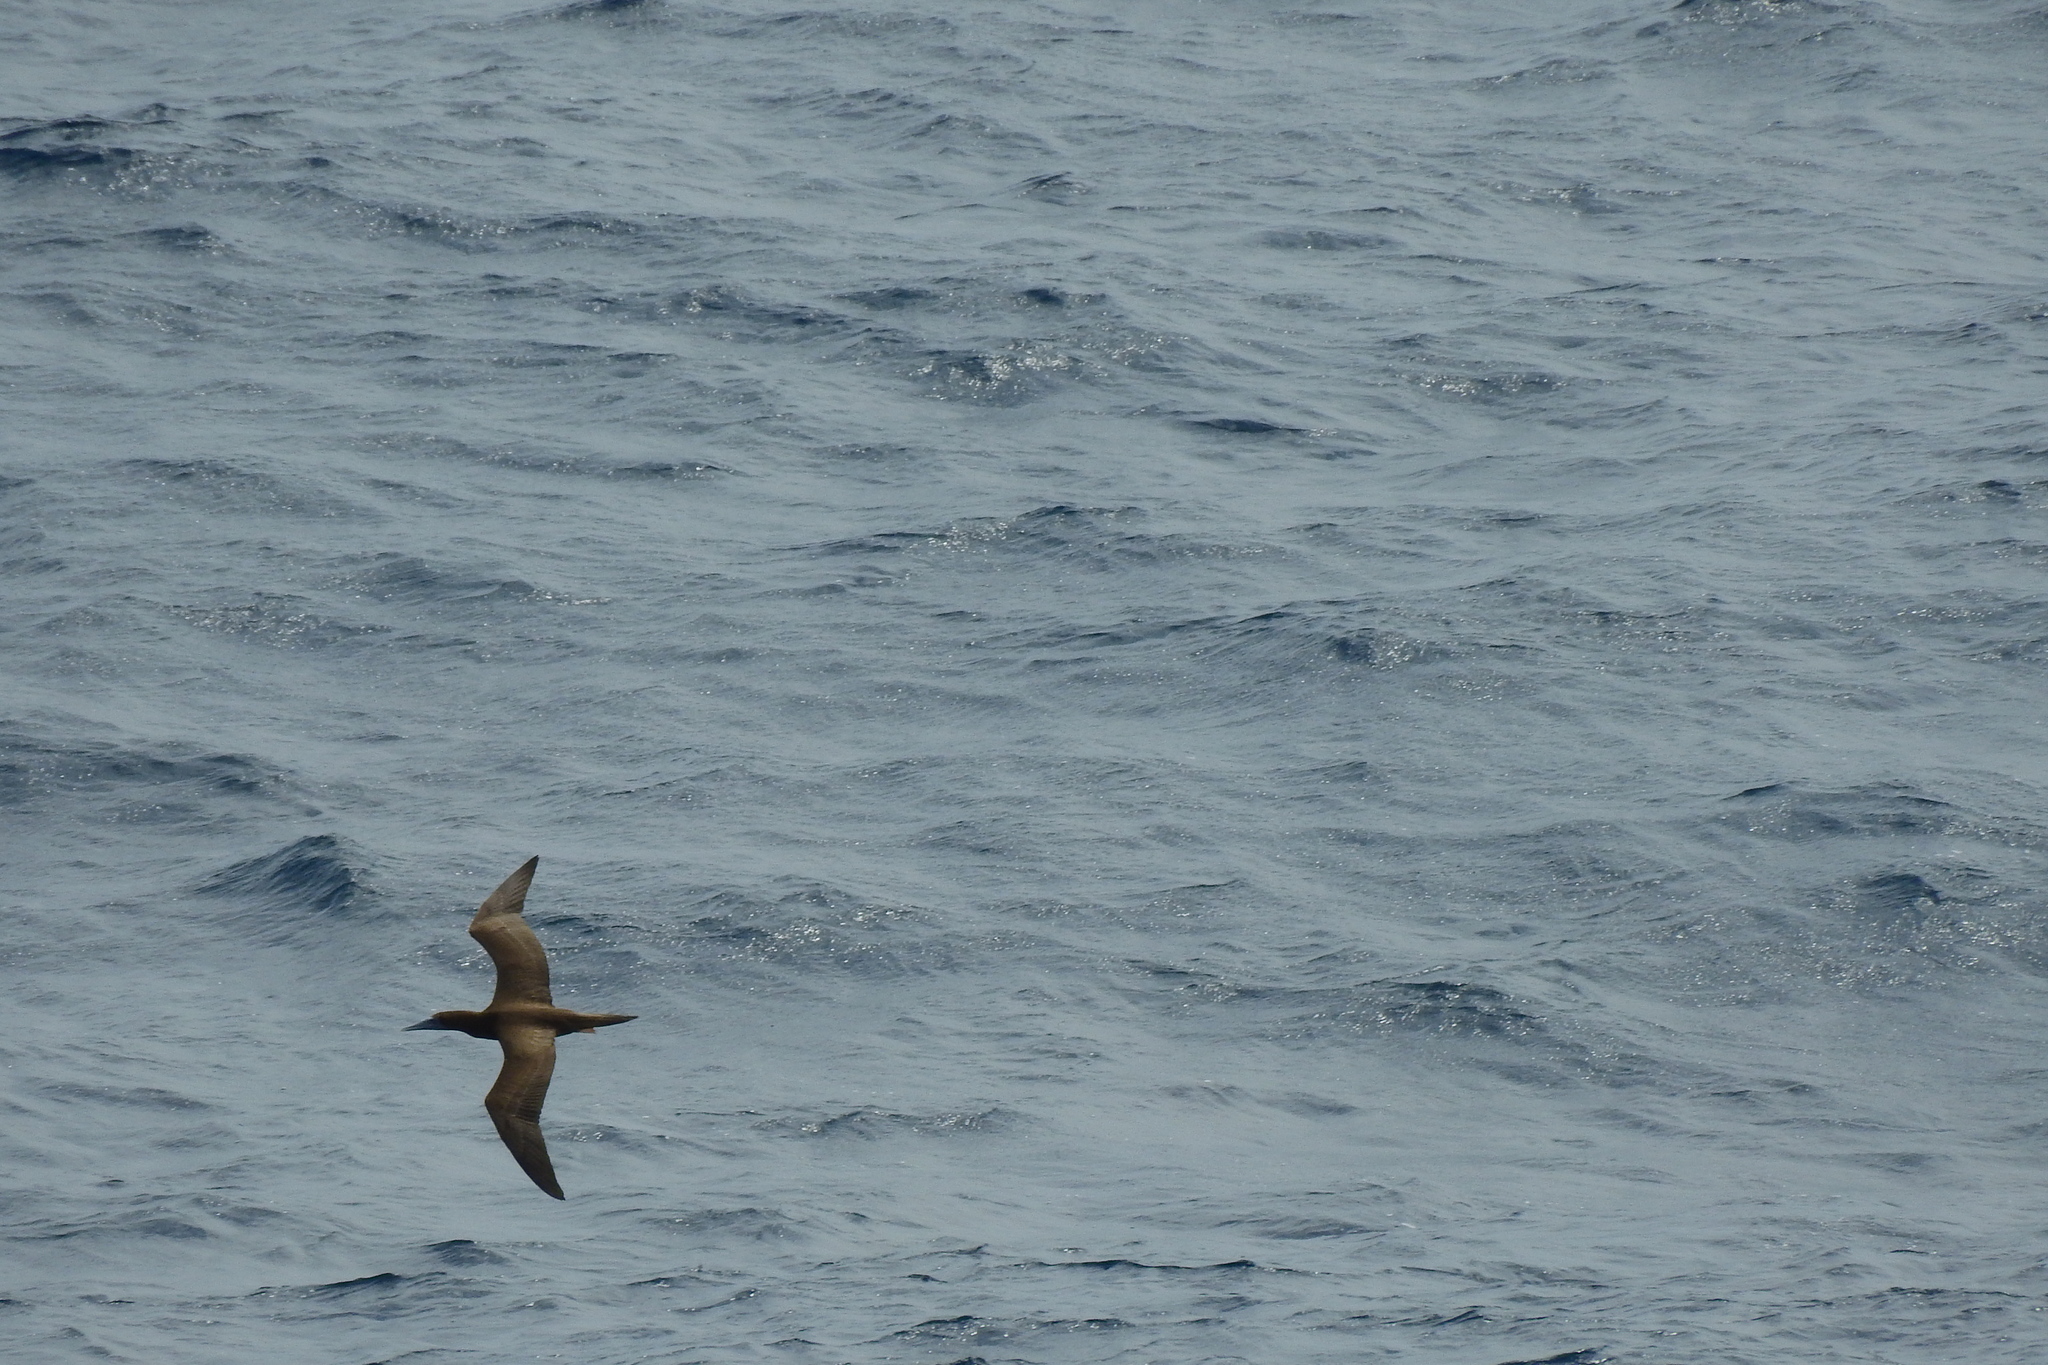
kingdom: Animalia
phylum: Chordata
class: Aves
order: Suliformes
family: Sulidae
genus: Sula
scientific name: Sula leucogaster
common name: Brown booby
